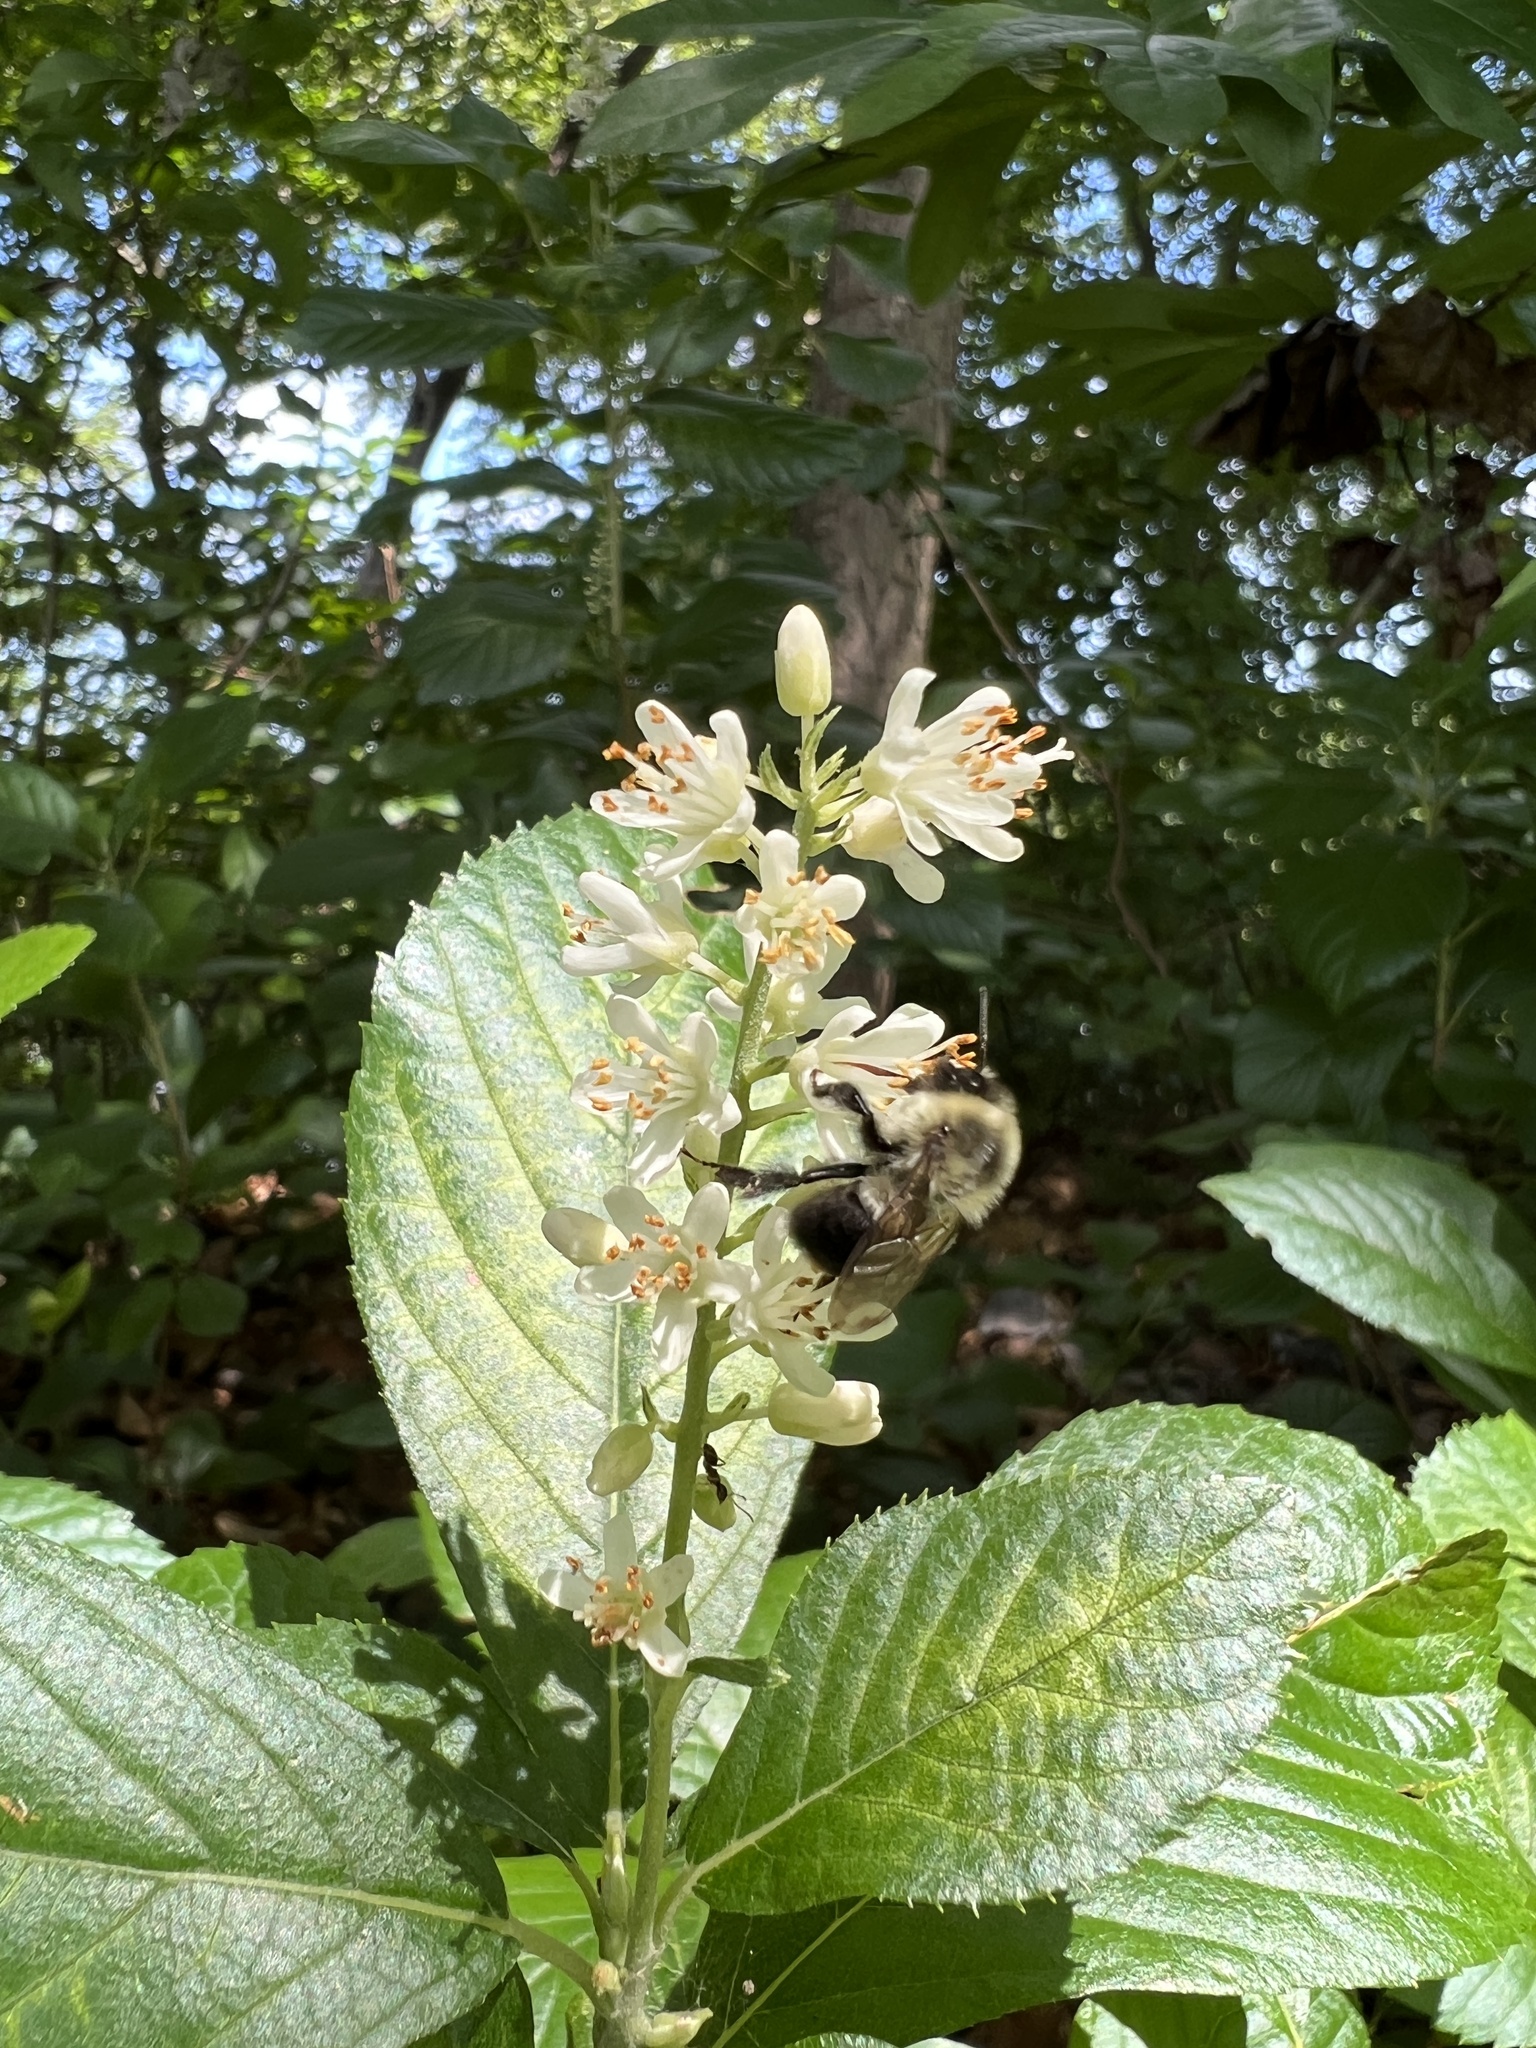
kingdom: Animalia
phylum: Arthropoda
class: Insecta
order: Hymenoptera
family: Apidae
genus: Bombus
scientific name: Bombus impatiens
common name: Common eastern bumble bee
